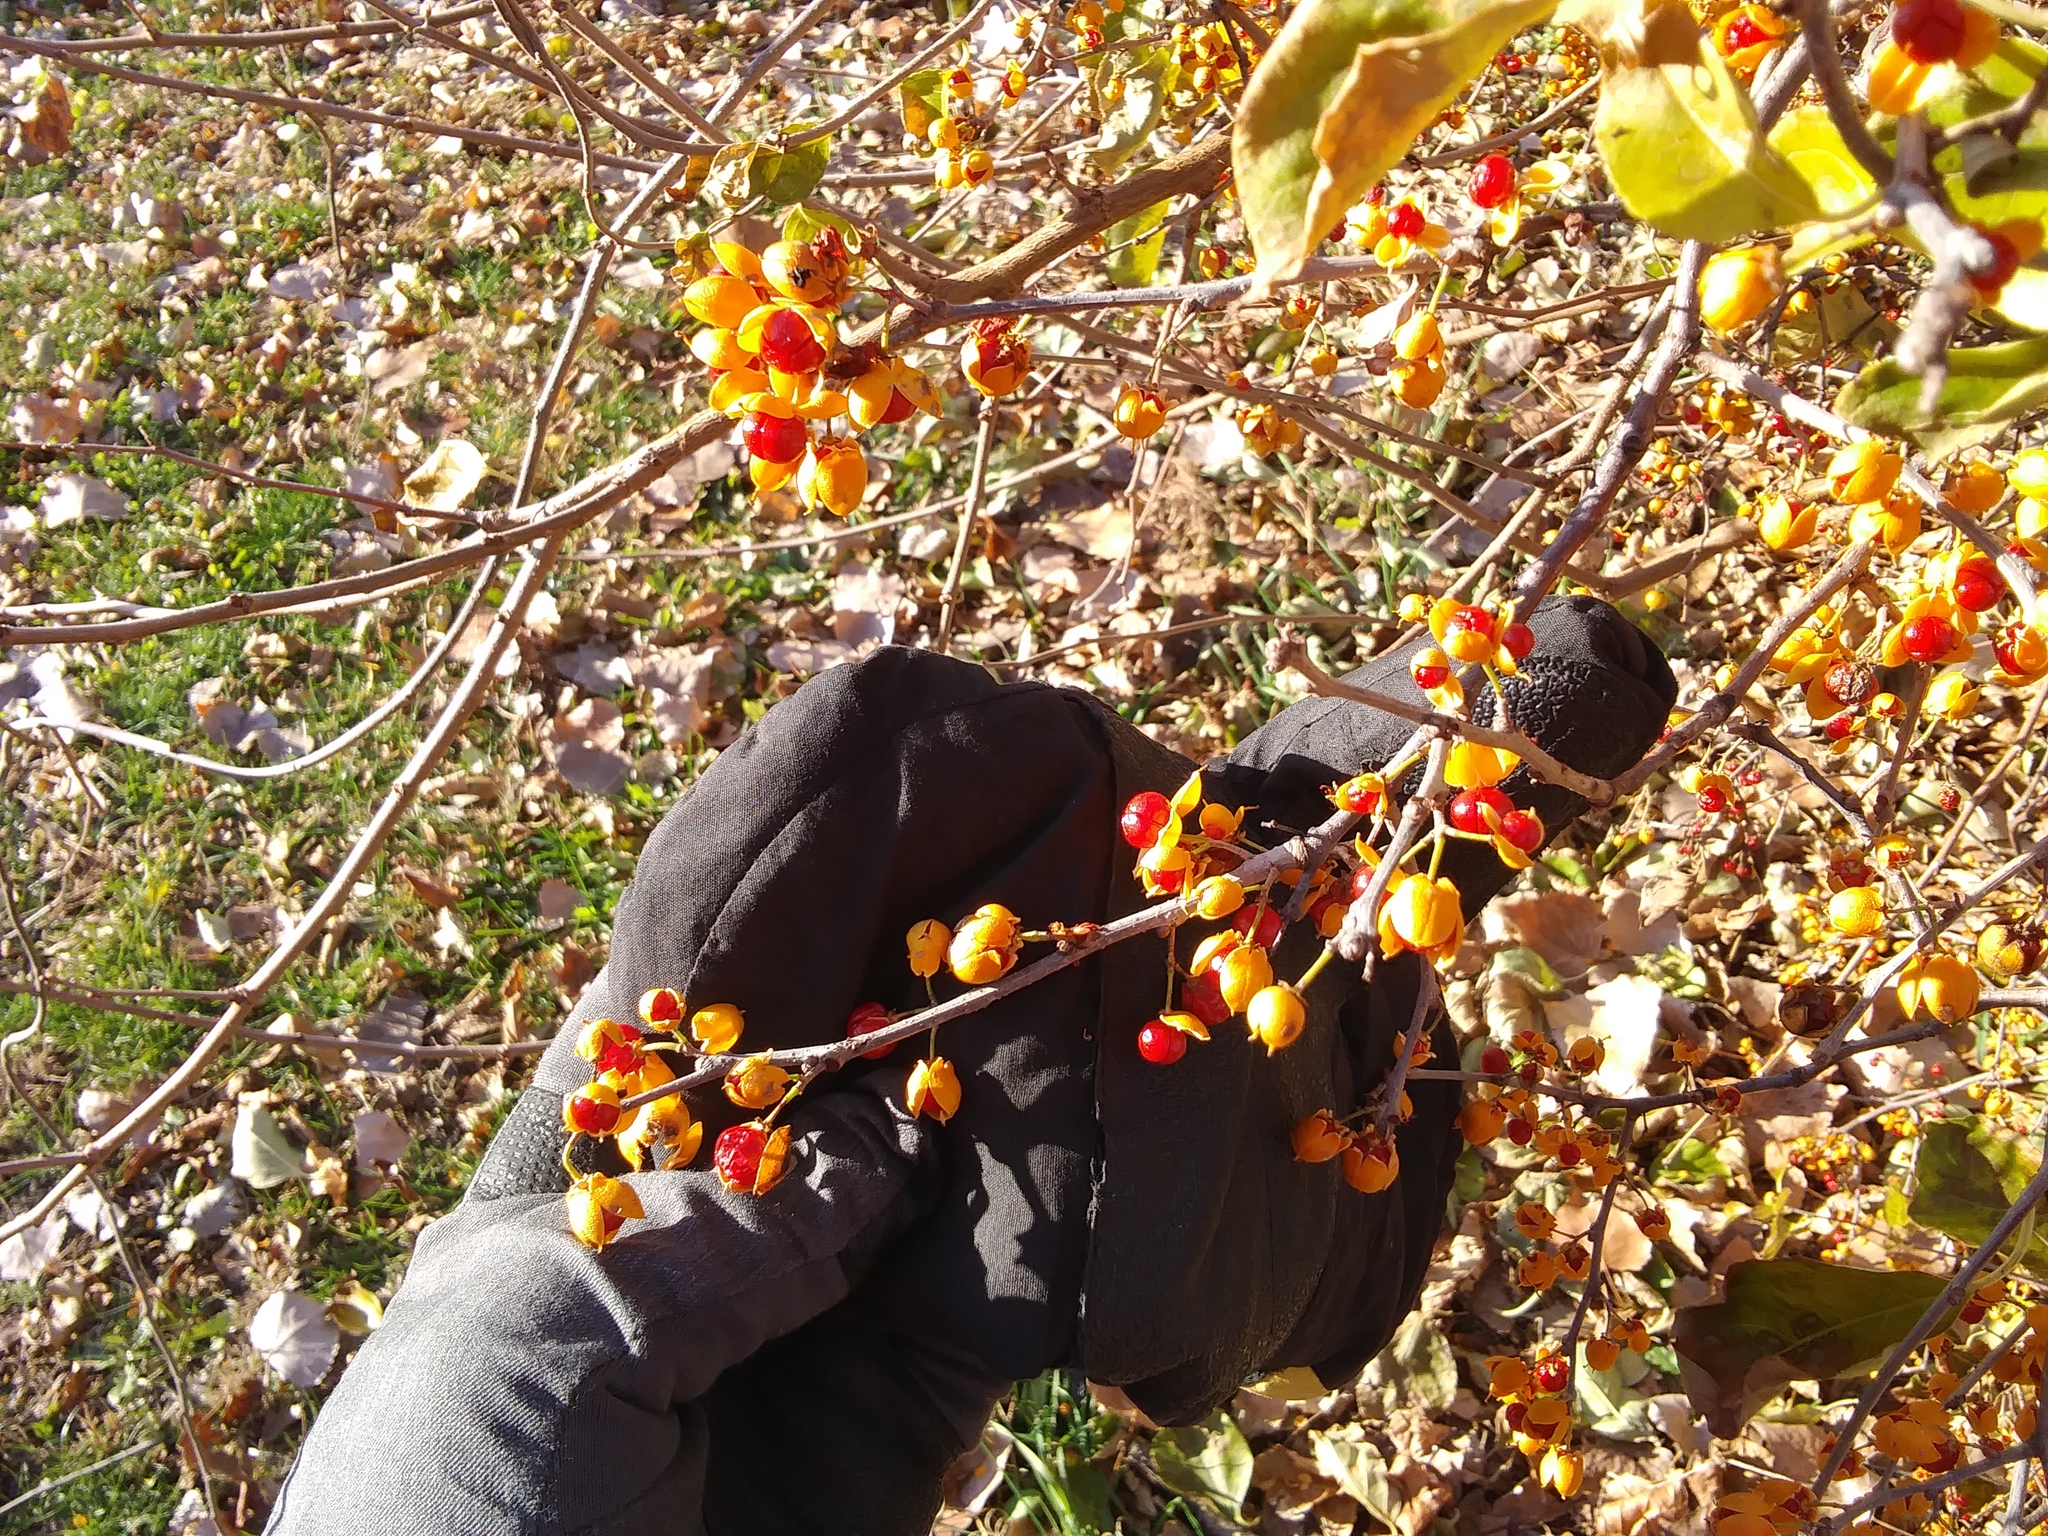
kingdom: Plantae
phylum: Tracheophyta
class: Magnoliopsida
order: Celastrales
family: Celastraceae
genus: Celastrus
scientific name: Celastrus orbiculatus
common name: Oriental bittersweet
